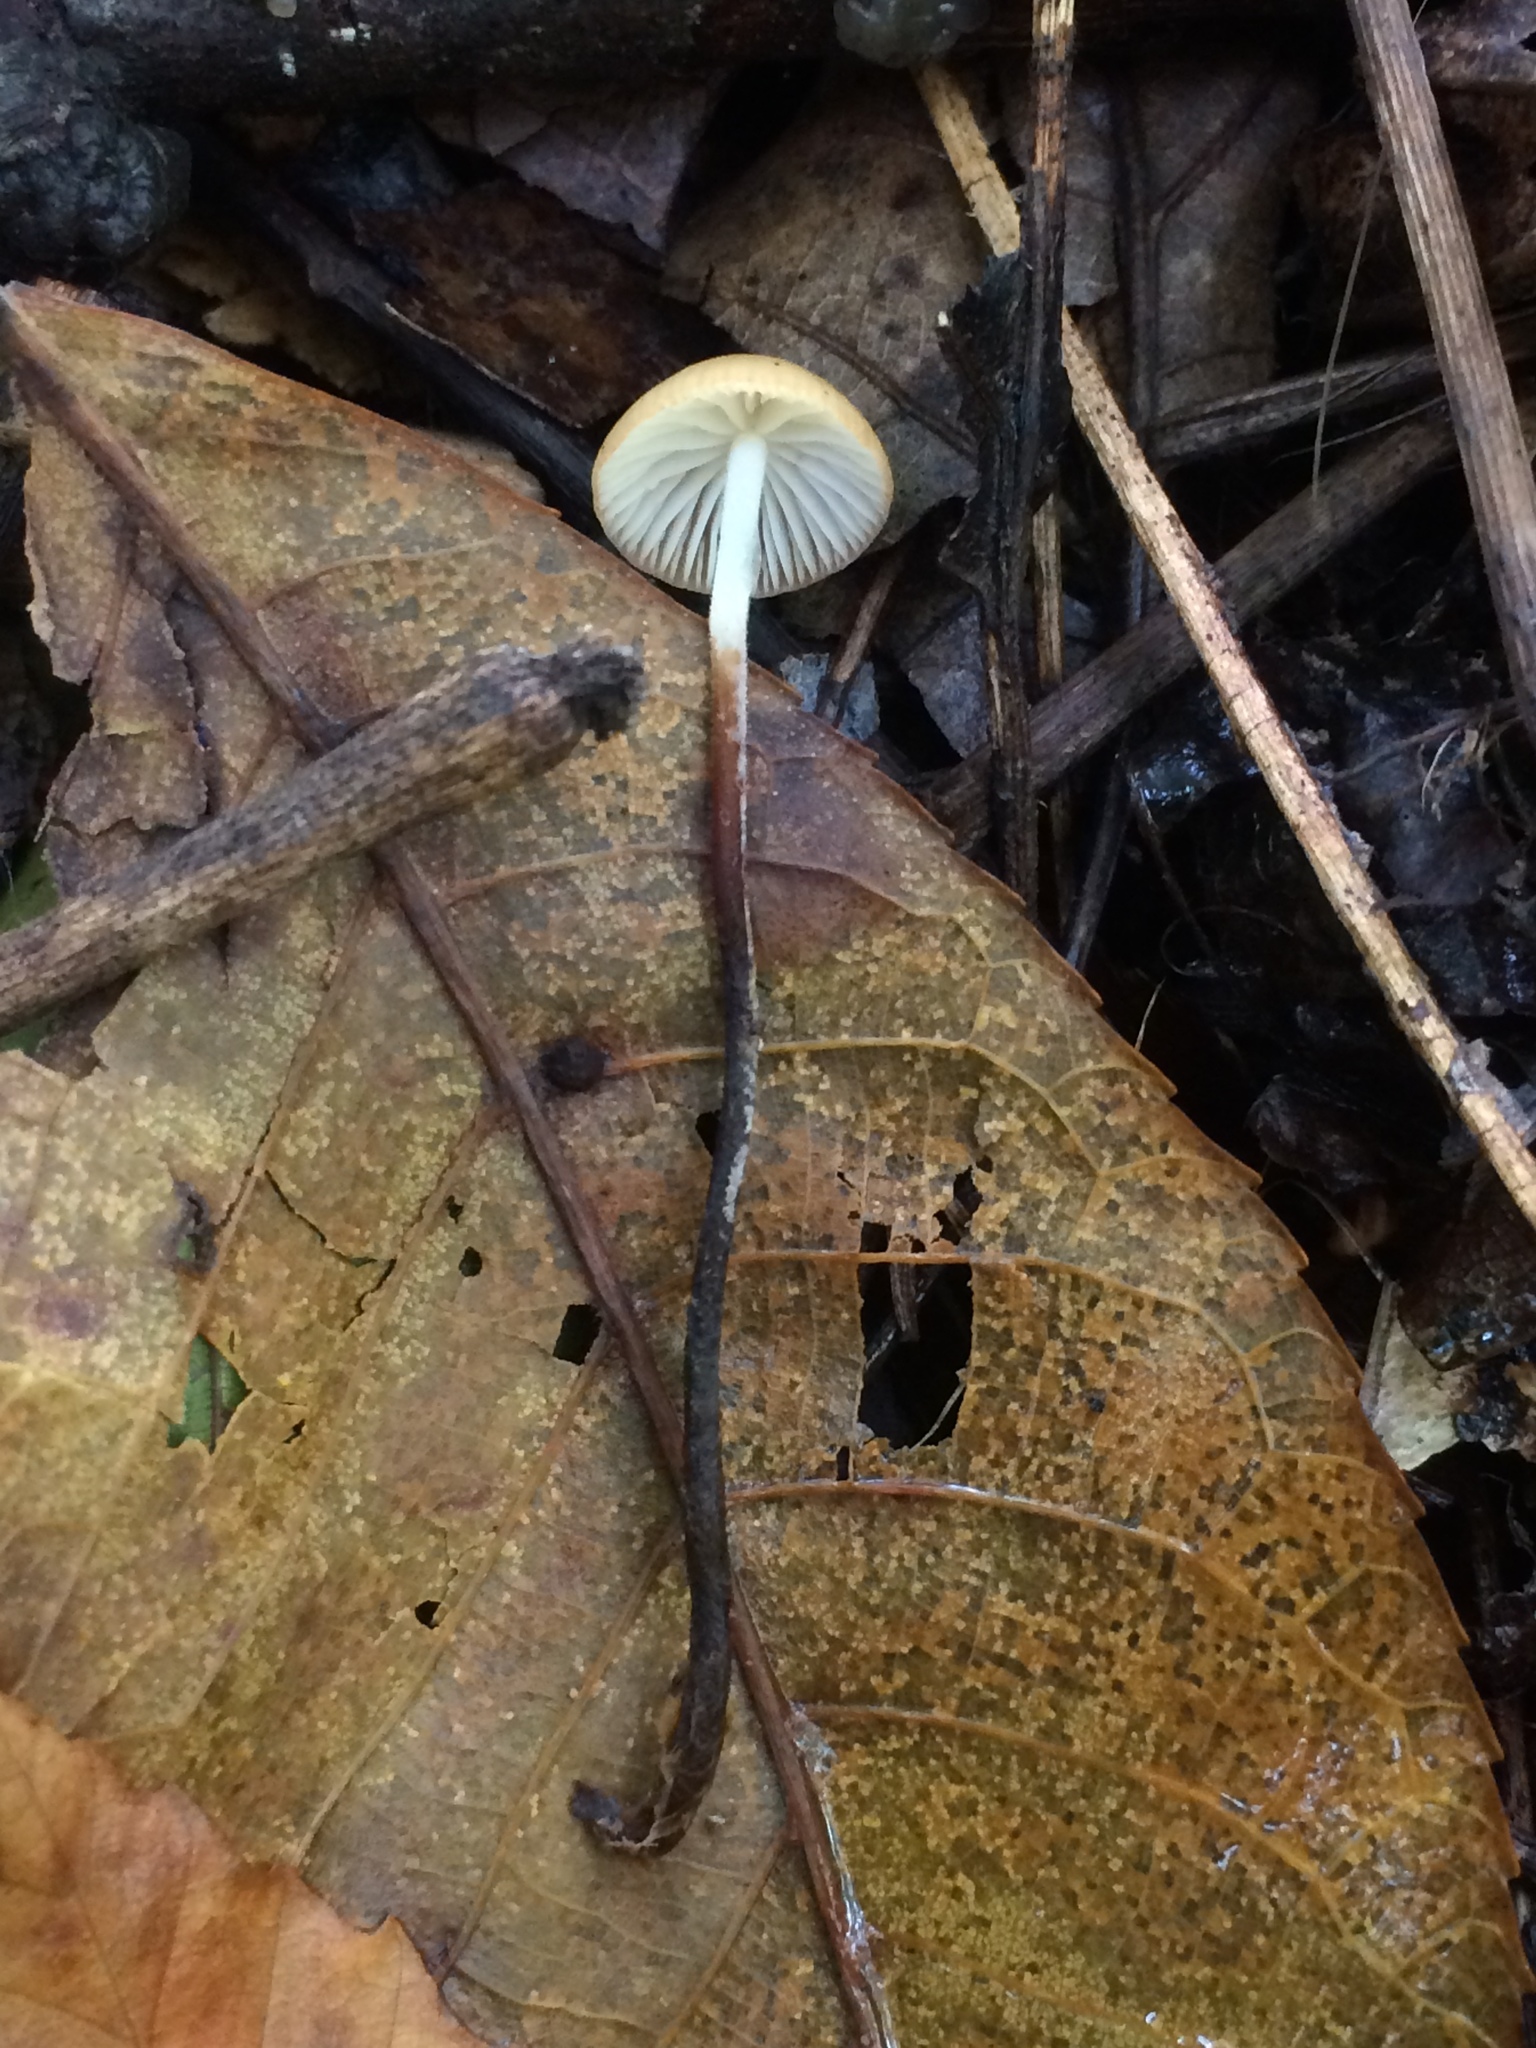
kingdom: Fungi
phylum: Basidiomycota
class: Agaricomycetes
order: Agaricales
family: Physalacriaceae
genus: Rhizomarasmius
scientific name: Rhizomarasmius pyrrhocephalus
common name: Hairy long stem marasmius
